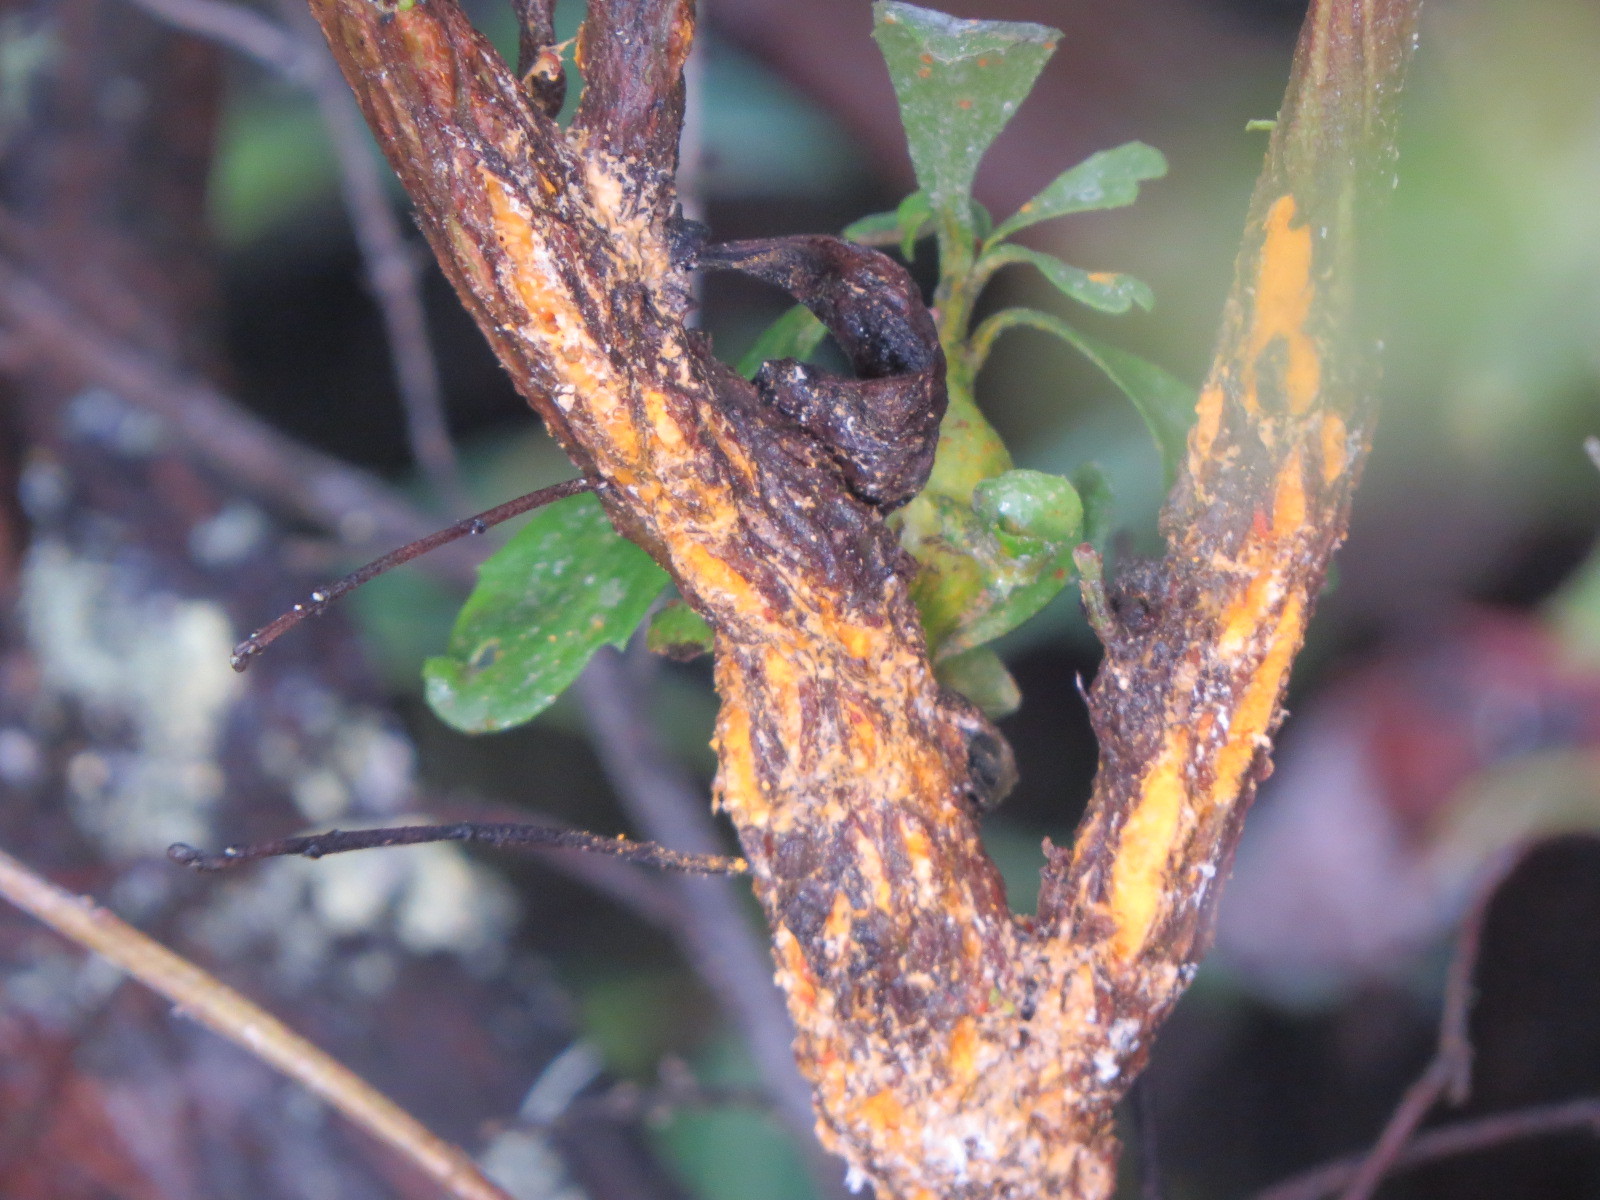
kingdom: Fungi
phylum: Basidiomycota
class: Pucciniomycetes
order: Pucciniales
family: Pucciniaceae
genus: Eriosporangium
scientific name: Eriosporangium evadens
